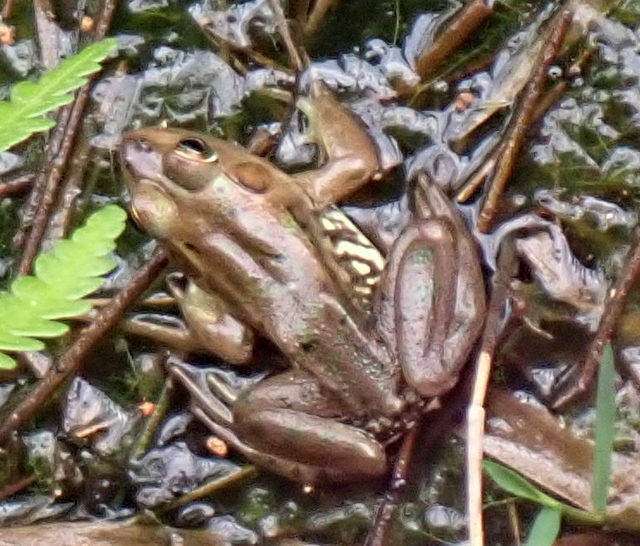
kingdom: Animalia
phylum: Chordata
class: Amphibia
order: Anura
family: Ranidae
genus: Lithobates
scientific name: Lithobates grylio
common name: Pig frog
